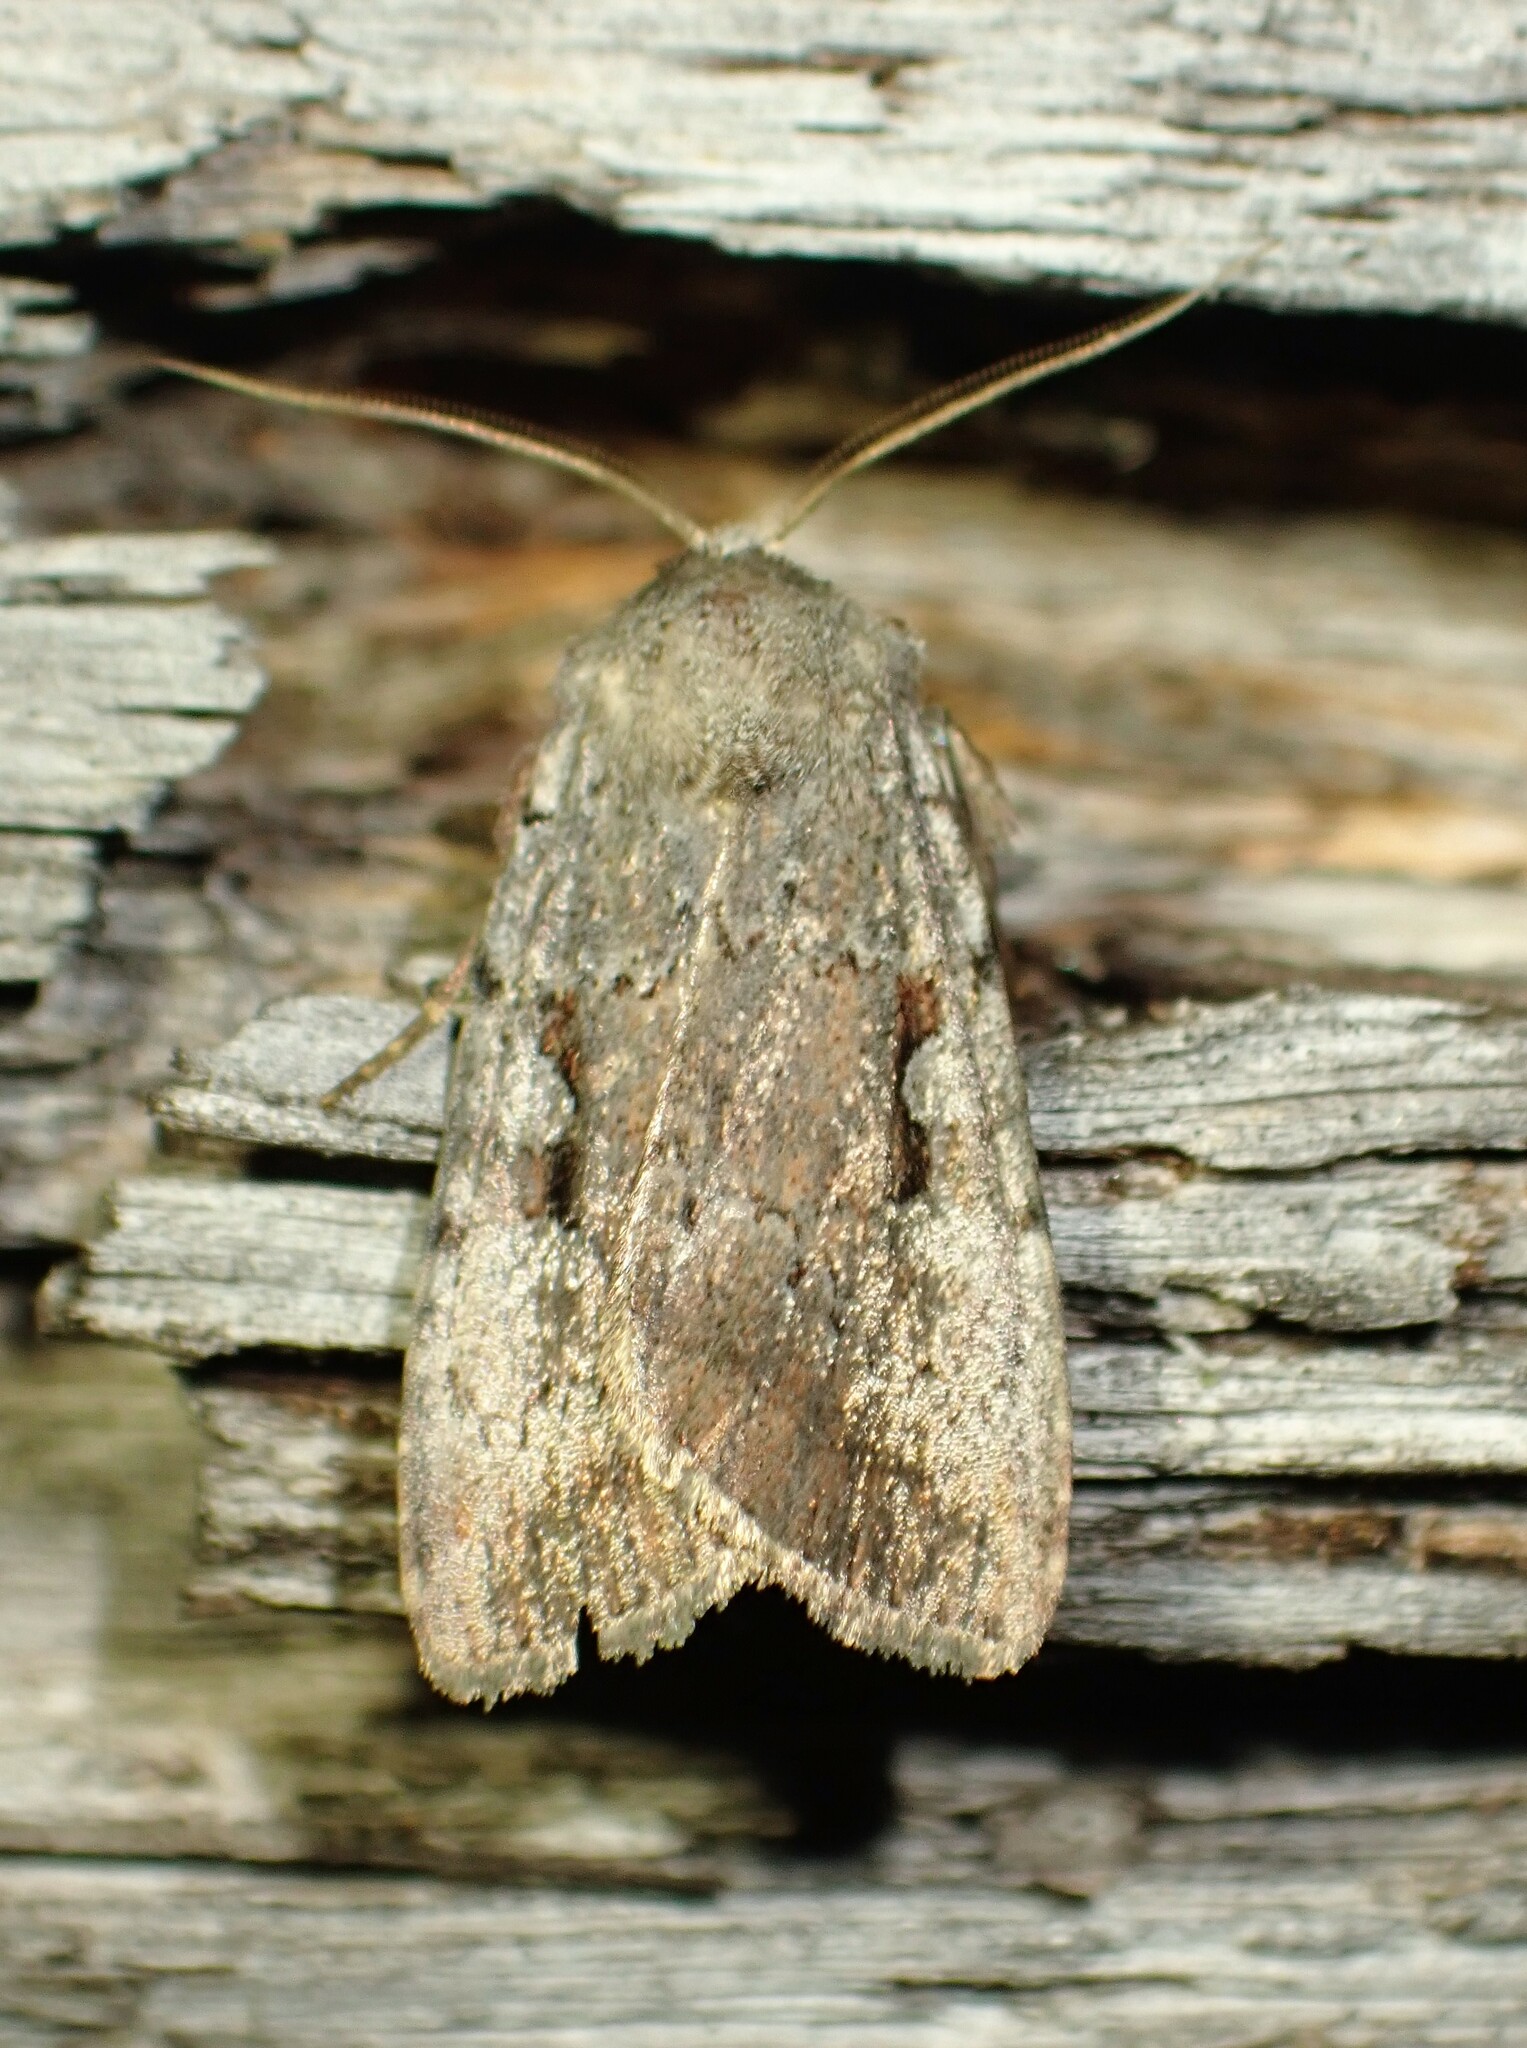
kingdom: Animalia
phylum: Arthropoda
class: Insecta
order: Lepidoptera
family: Noctuidae
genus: Coenophila
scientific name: Coenophila opacifrons
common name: Blueberry dart
